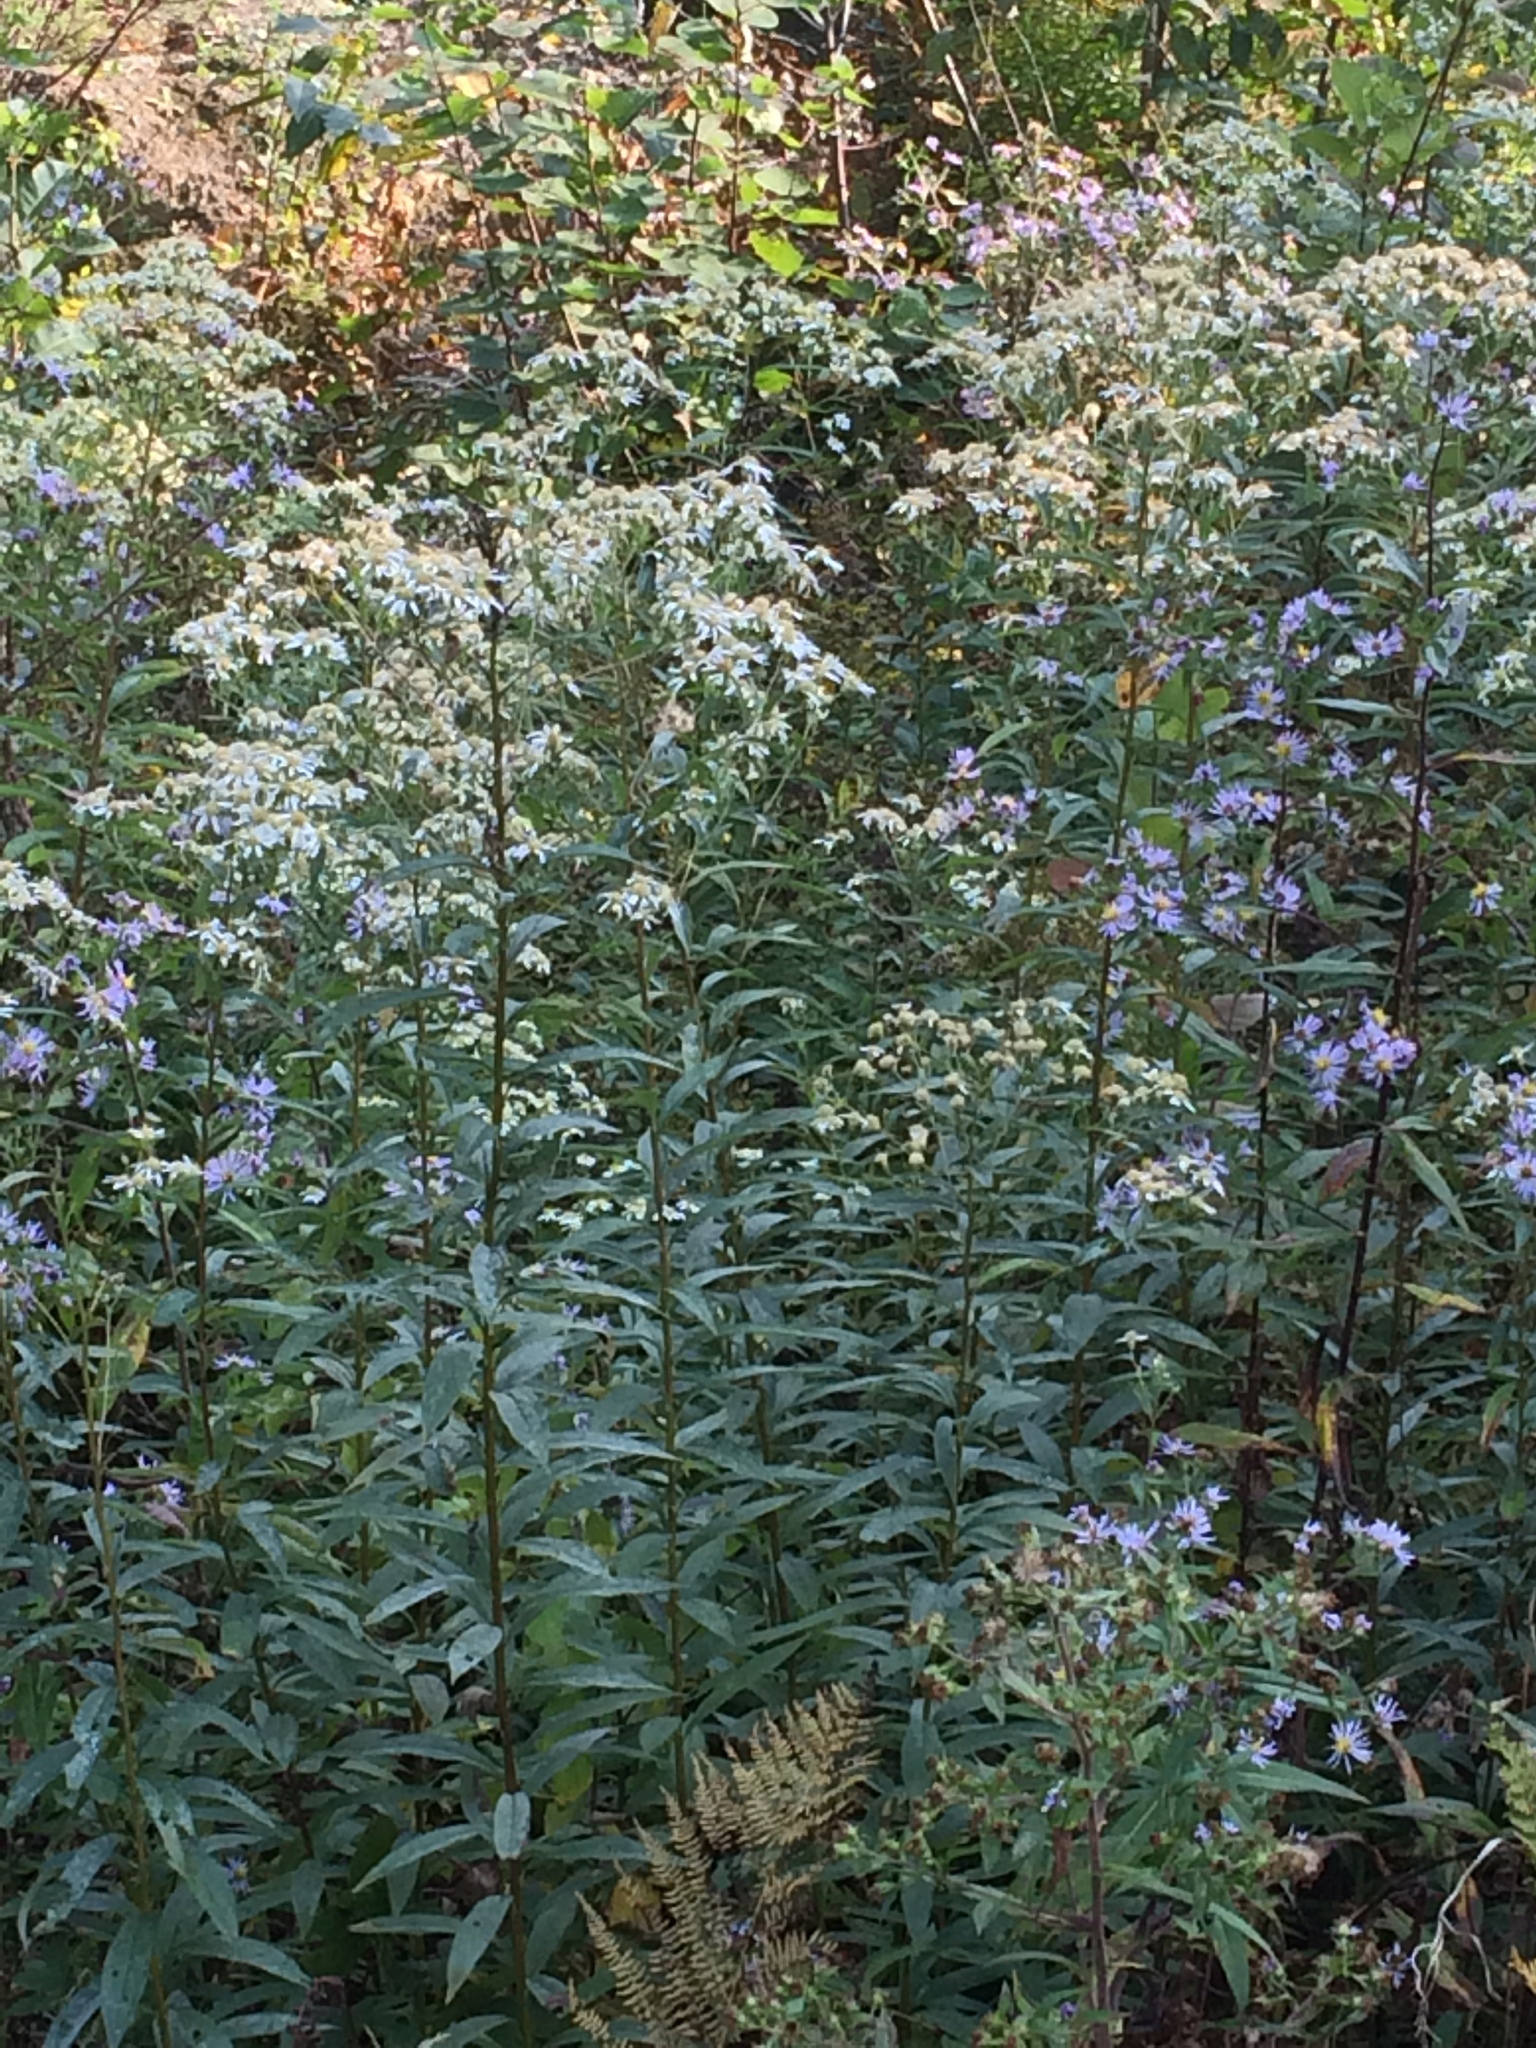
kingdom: Plantae
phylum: Tracheophyta
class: Magnoliopsida
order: Asterales
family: Asteraceae
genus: Doellingeria
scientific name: Doellingeria umbellata
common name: Flat-top white aster
